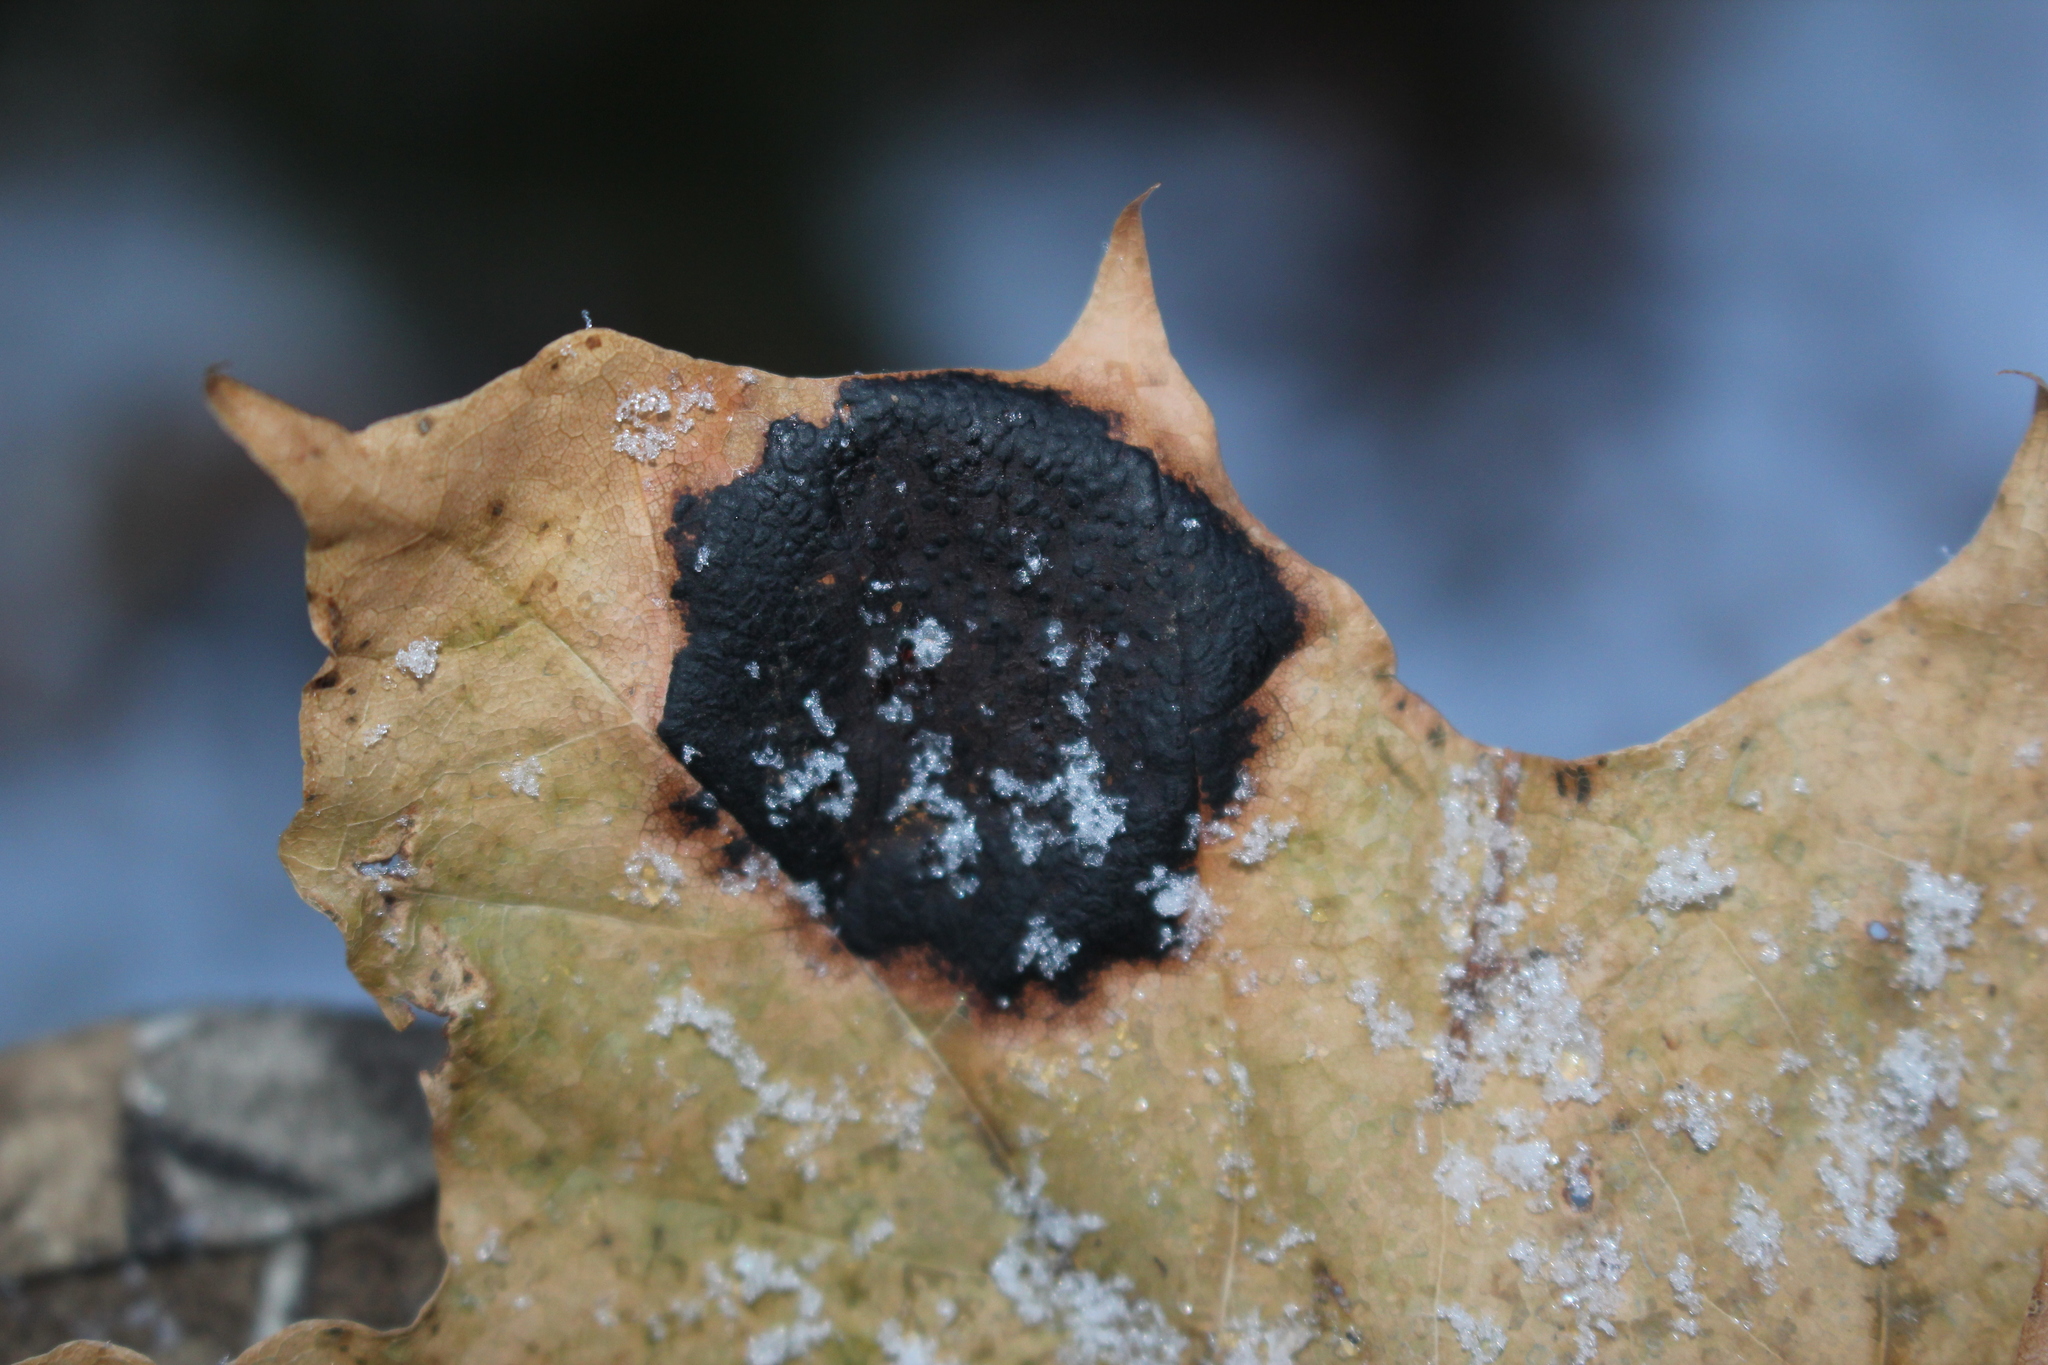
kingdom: Fungi
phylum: Ascomycota
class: Leotiomycetes
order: Rhytismatales
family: Rhytismataceae
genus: Rhytisma
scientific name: Rhytisma acerinum
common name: European tar spot
